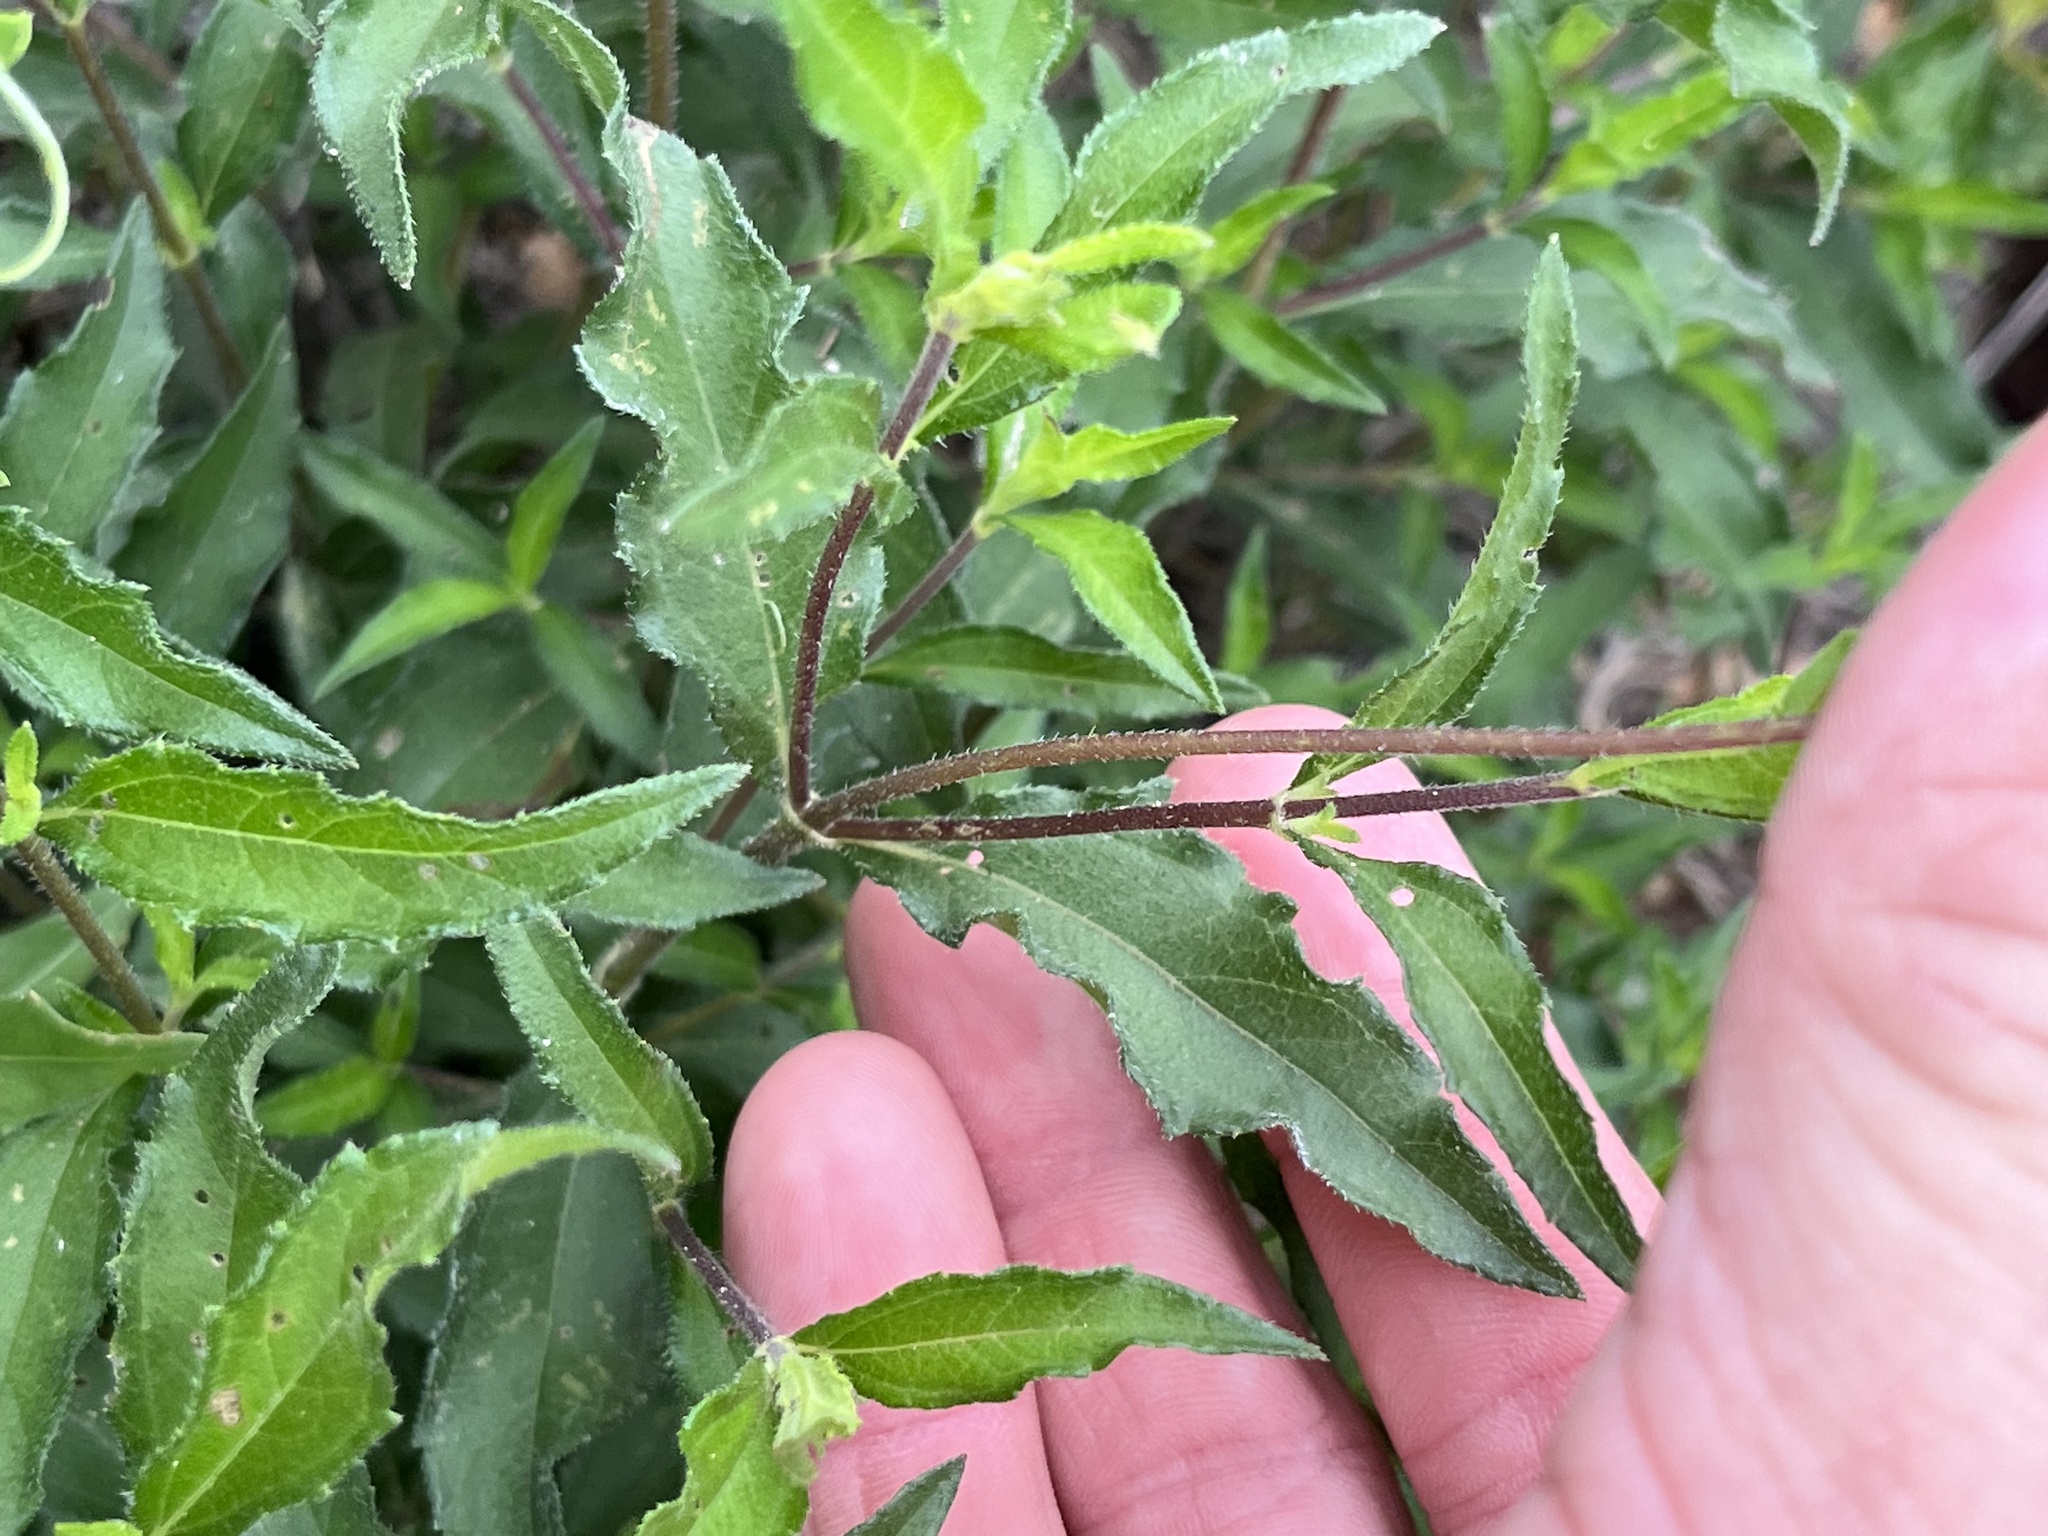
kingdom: Plantae
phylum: Tracheophyta
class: Magnoliopsida
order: Asterales
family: Asteraceae
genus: Wedelia
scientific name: Wedelia acapulcensis
